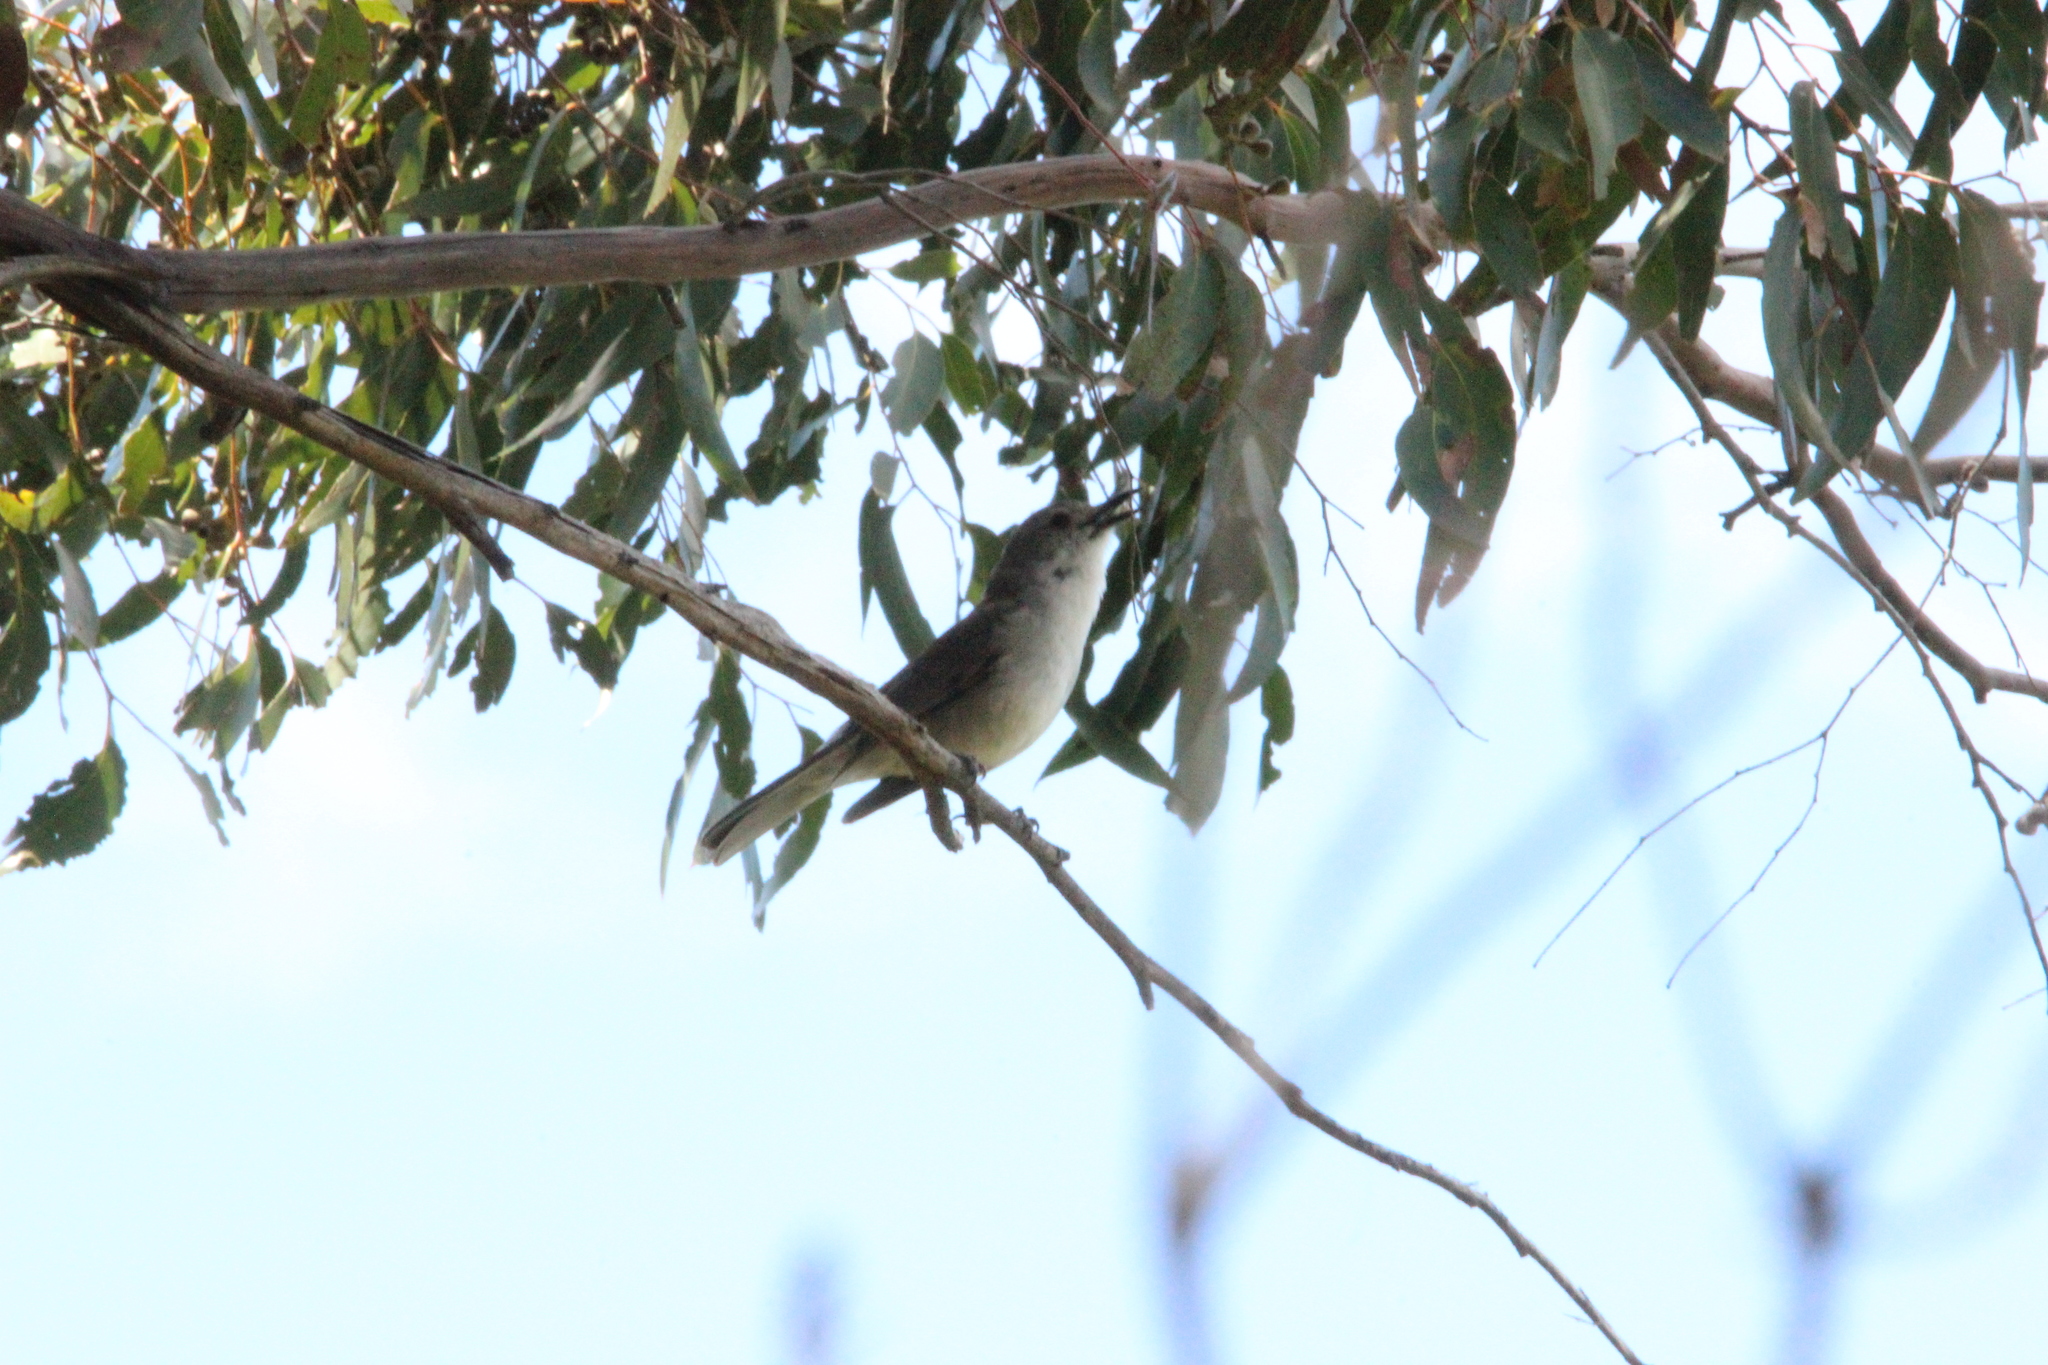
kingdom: Animalia
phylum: Chordata
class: Aves
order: Passeriformes
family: Pachycephalidae
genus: Colluricincla
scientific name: Colluricincla harmonica
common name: Grey shrikethrush
